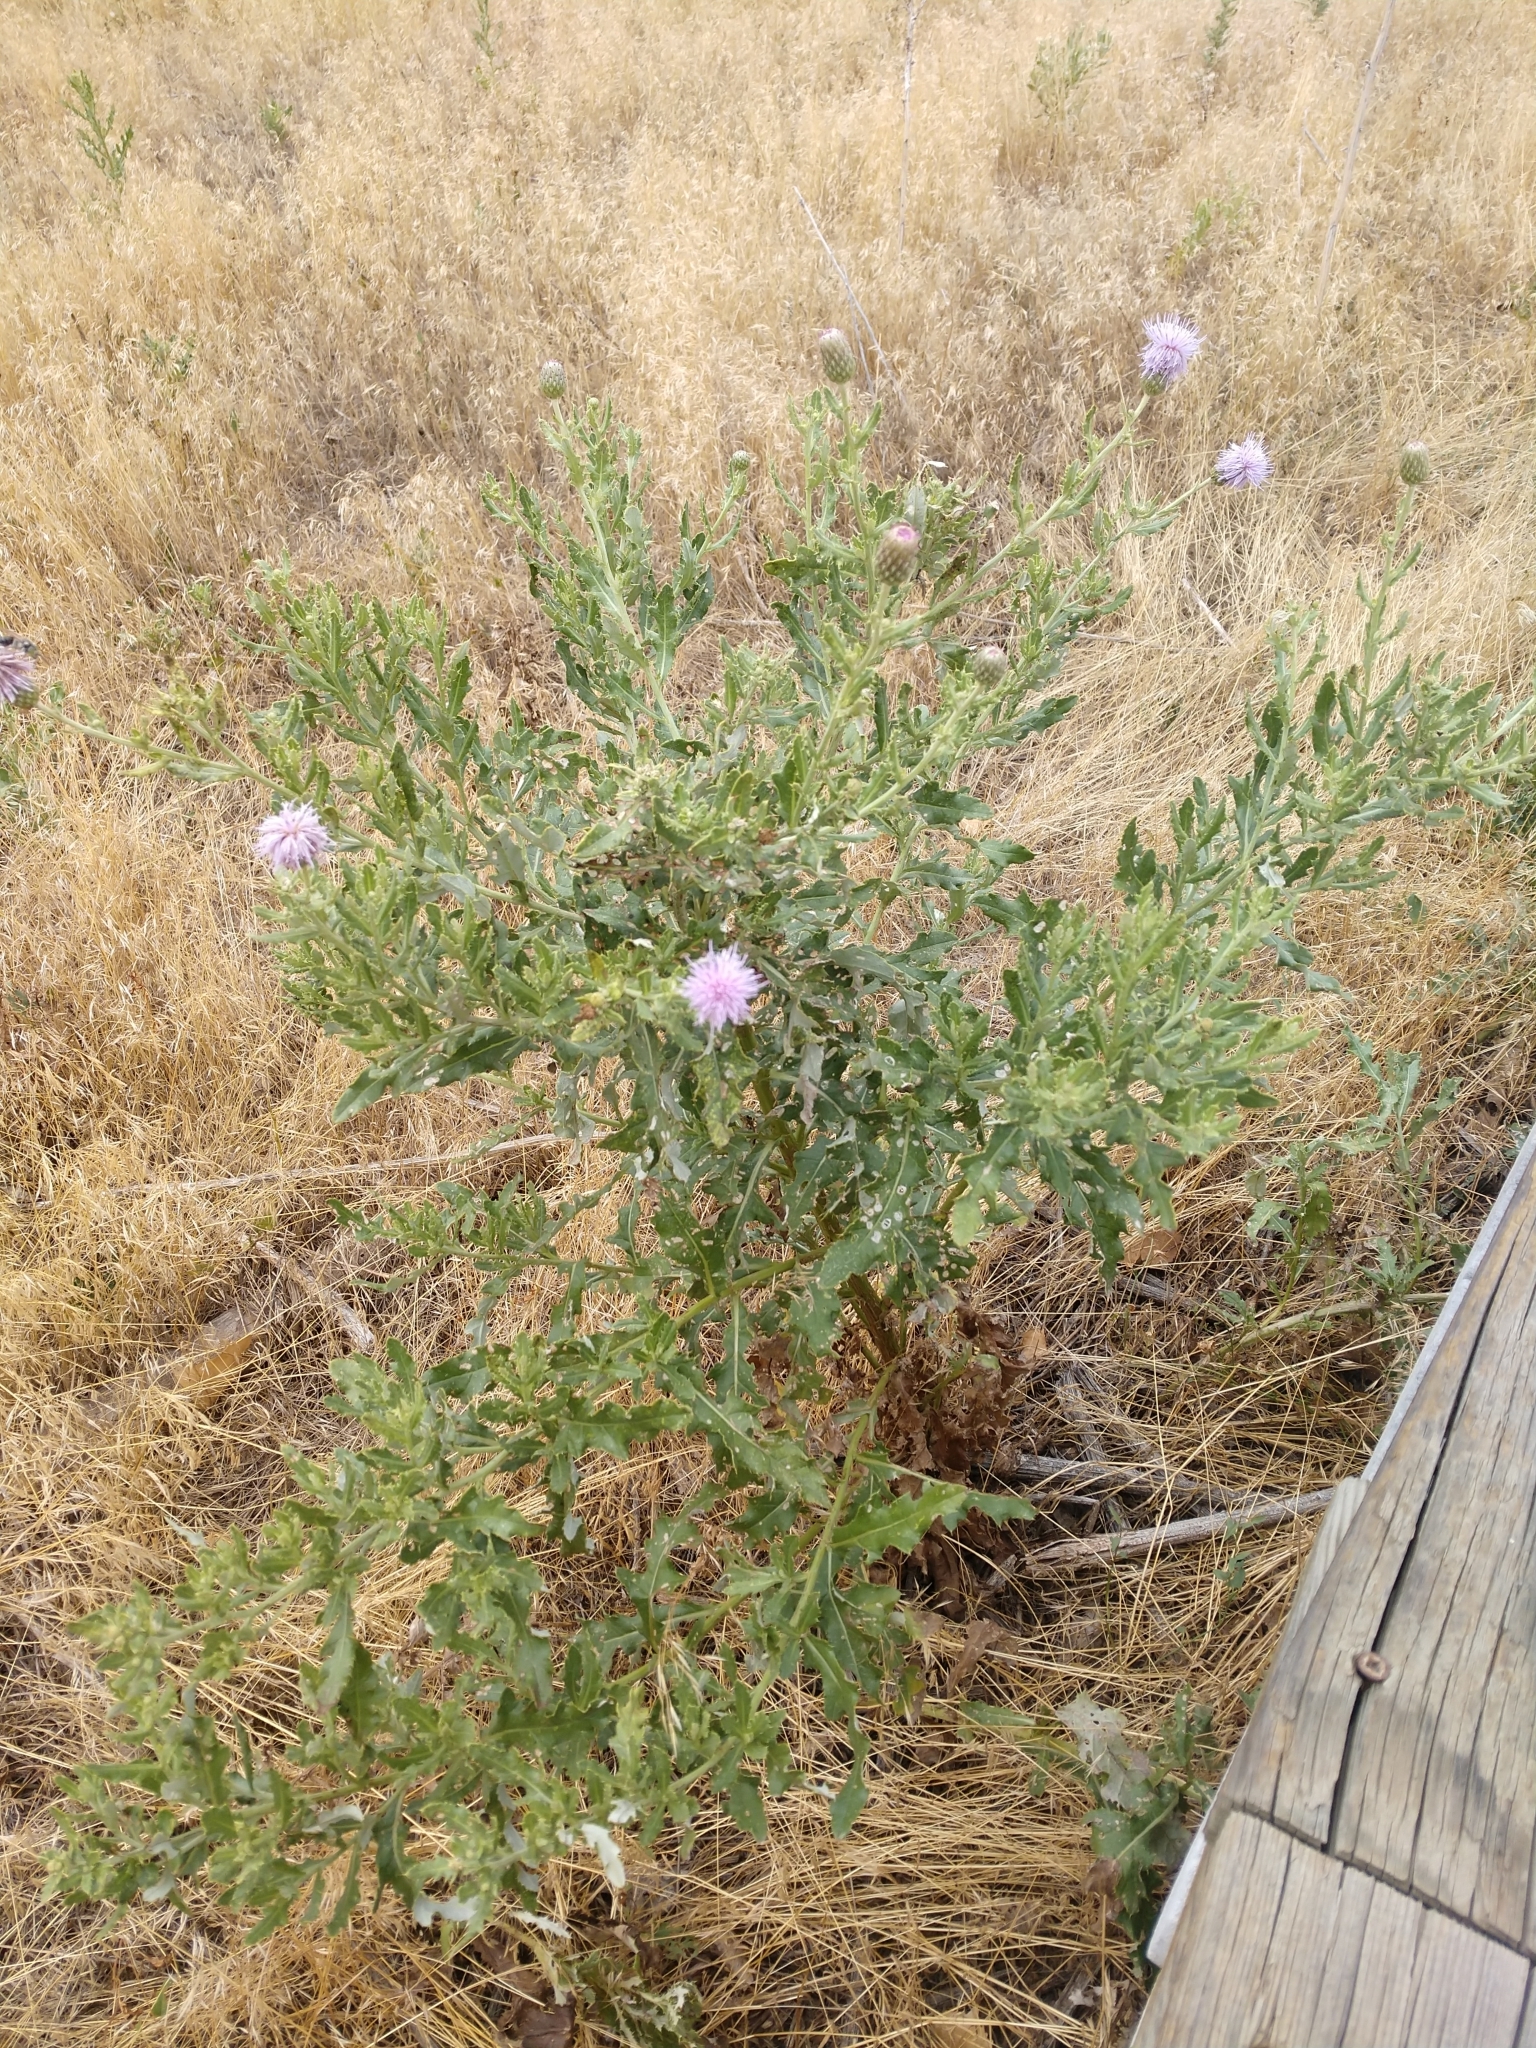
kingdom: Plantae
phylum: Tracheophyta
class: Magnoliopsida
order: Asterales
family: Asteraceae
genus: Cirsium
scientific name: Cirsium arvense
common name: Creeping thistle
